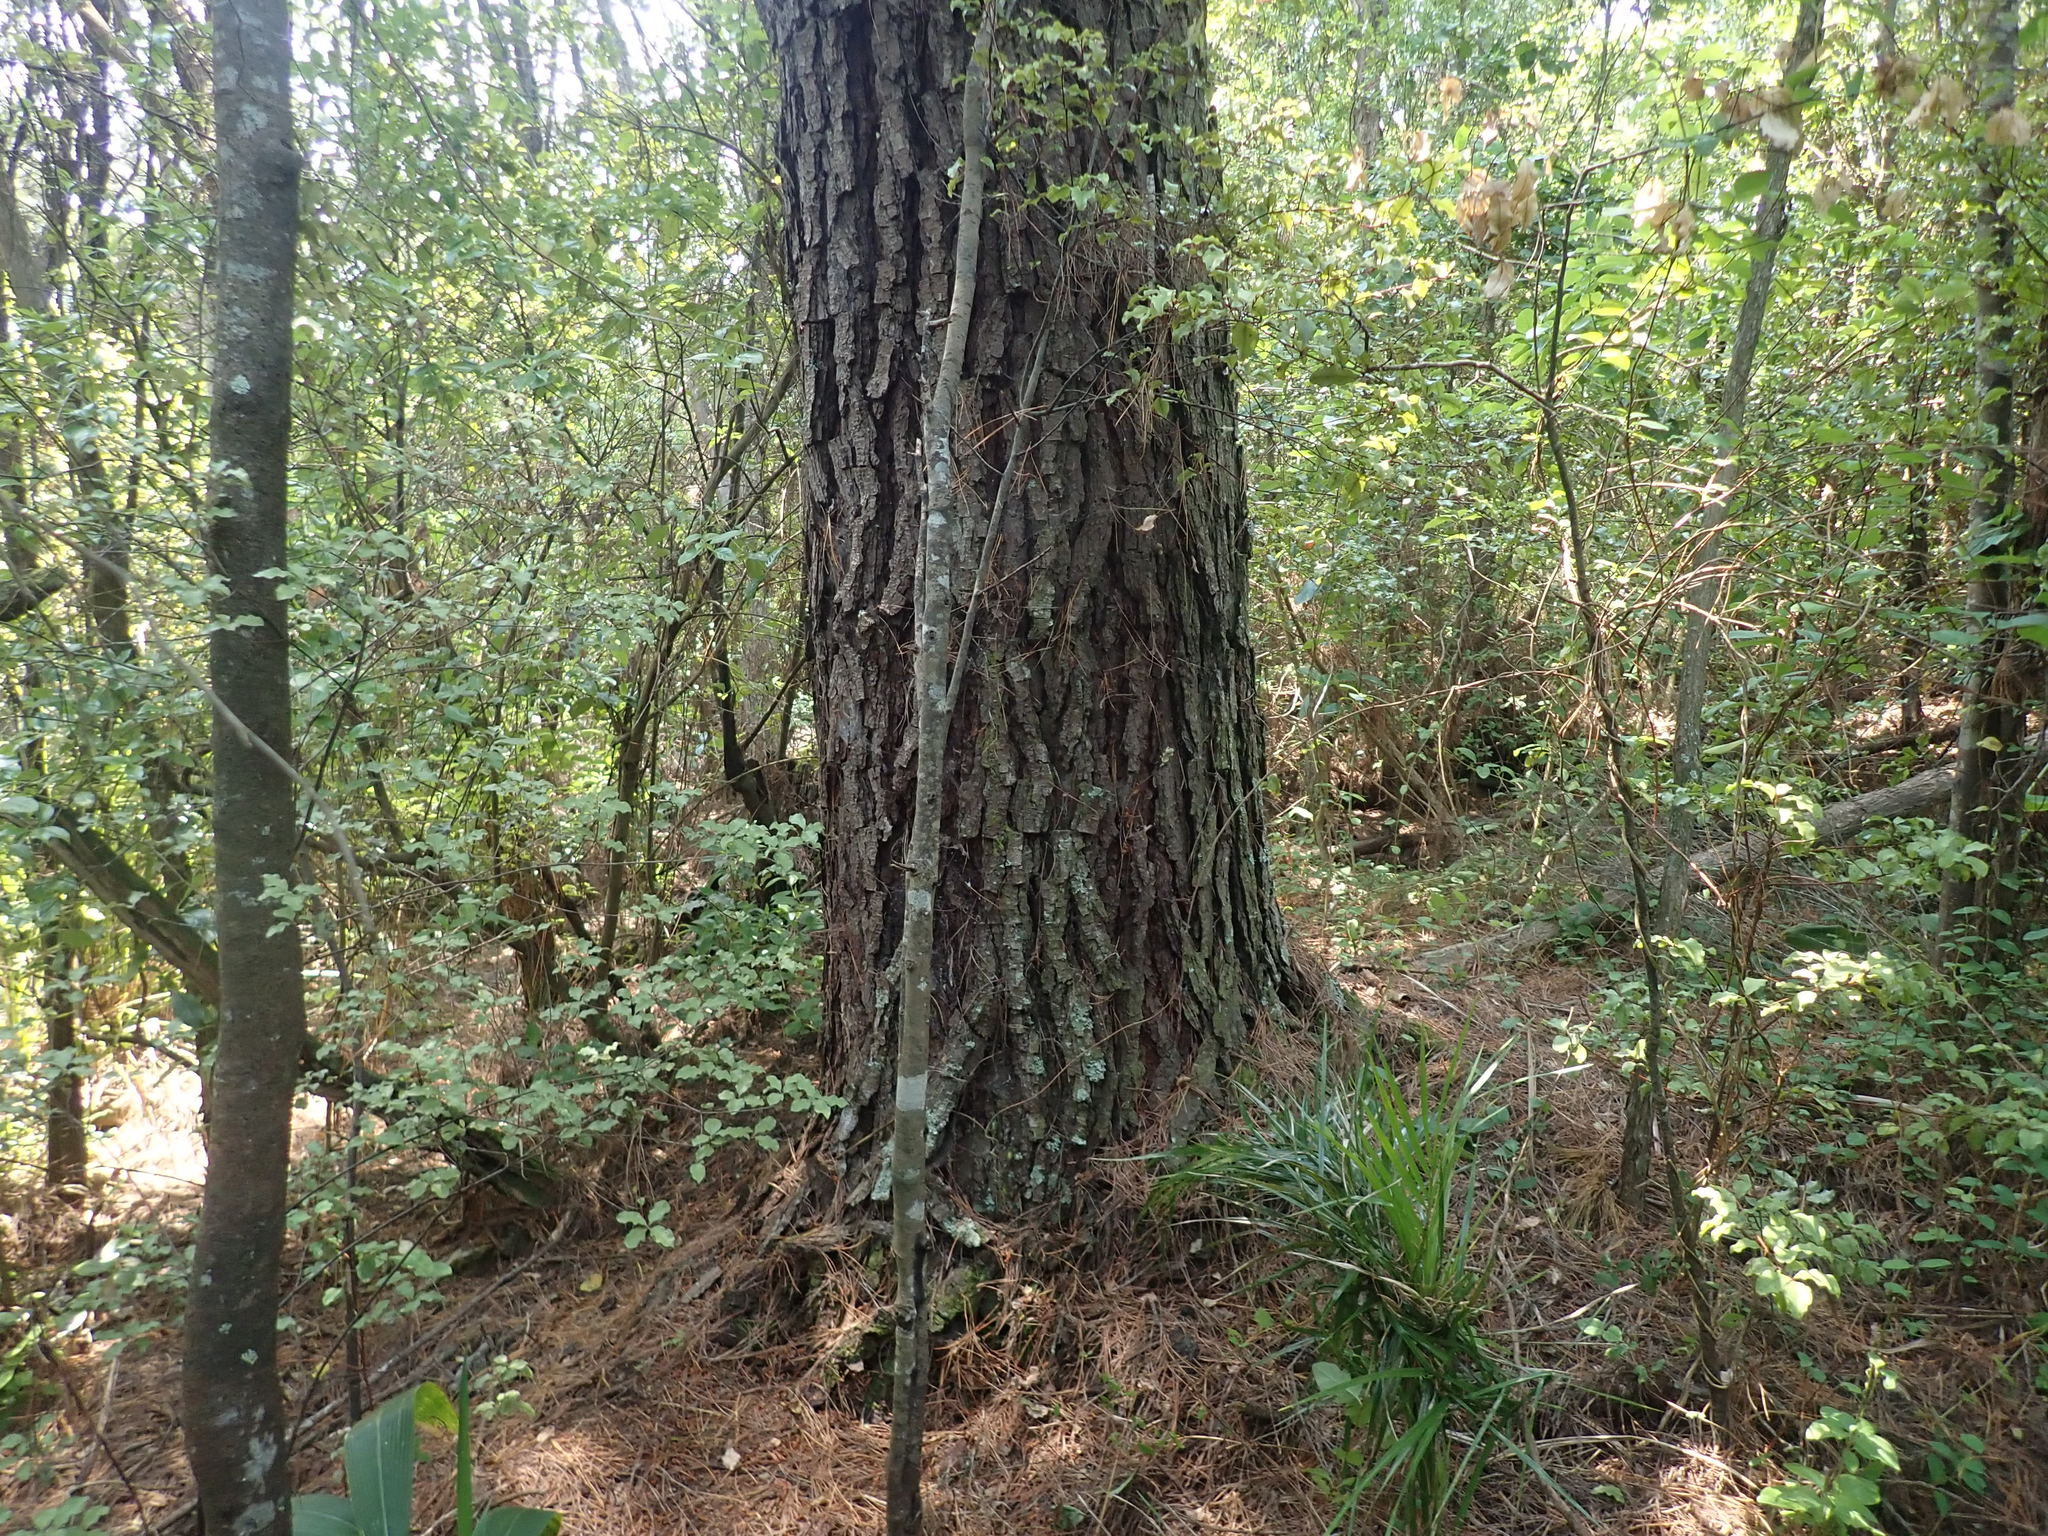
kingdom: Plantae
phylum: Tracheophyta
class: Magnoliopsida
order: Ericales
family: Primulaceae
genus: Myrsine
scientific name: Myrsine australis
